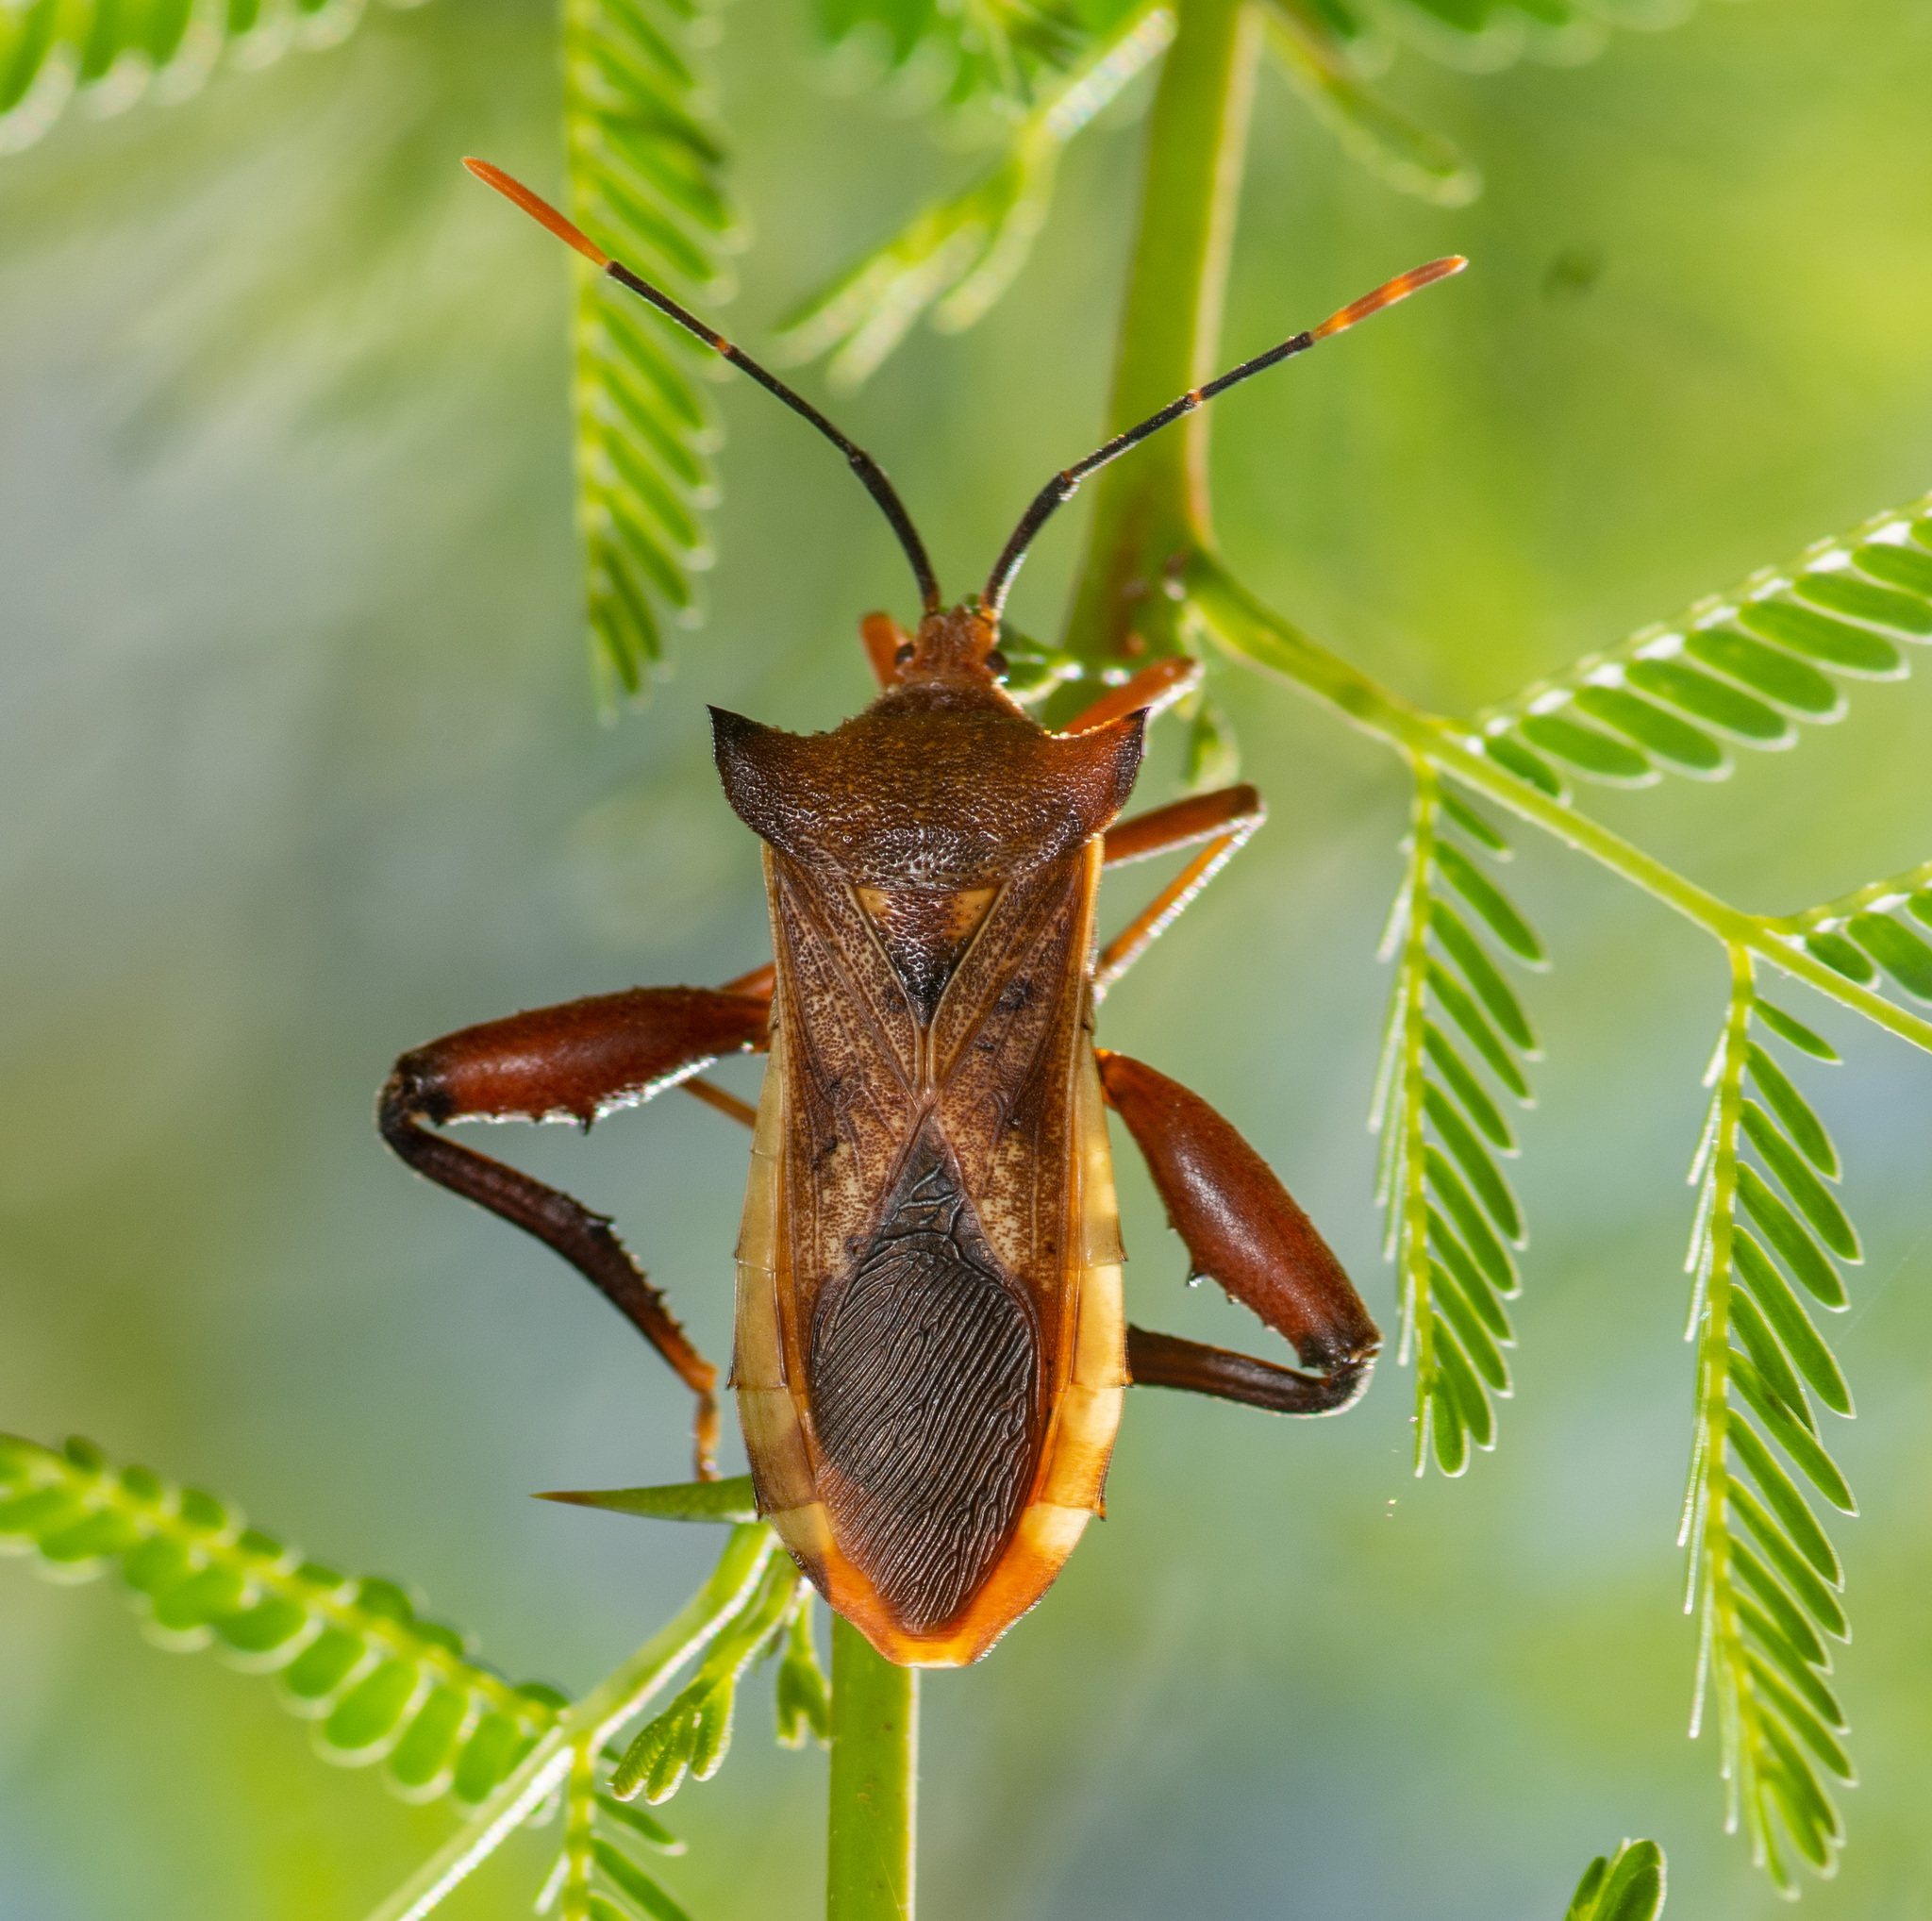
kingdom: Animalia
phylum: Arthropoda
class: Insecta
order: Hemiptera
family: Coreidae
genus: Mozena
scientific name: Mozena lunata
